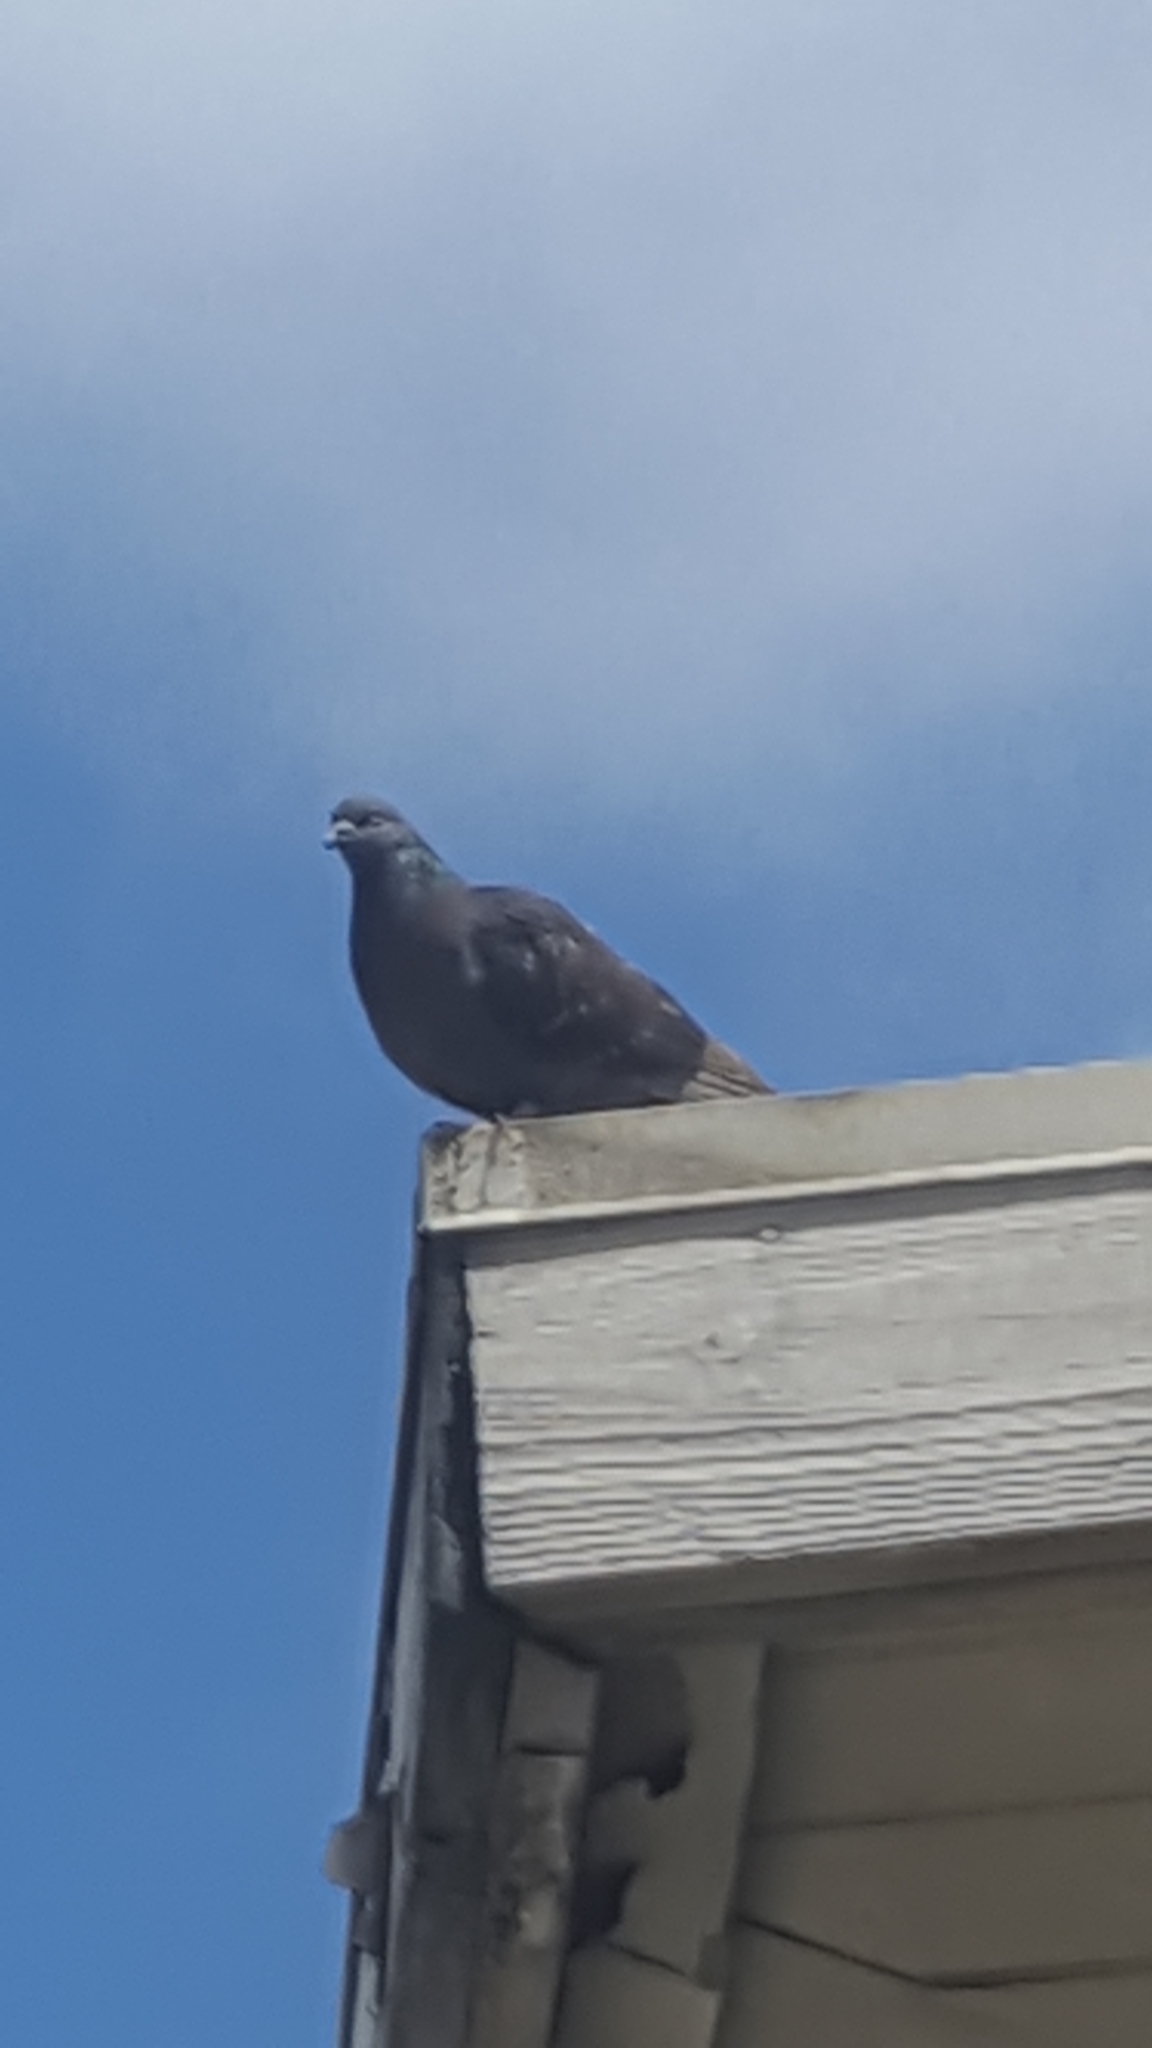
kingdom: Animalia
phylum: Chordata
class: Aves
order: Columbiformes
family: Columbidae
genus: Columba
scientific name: Columba livia
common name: Rock pigeon
